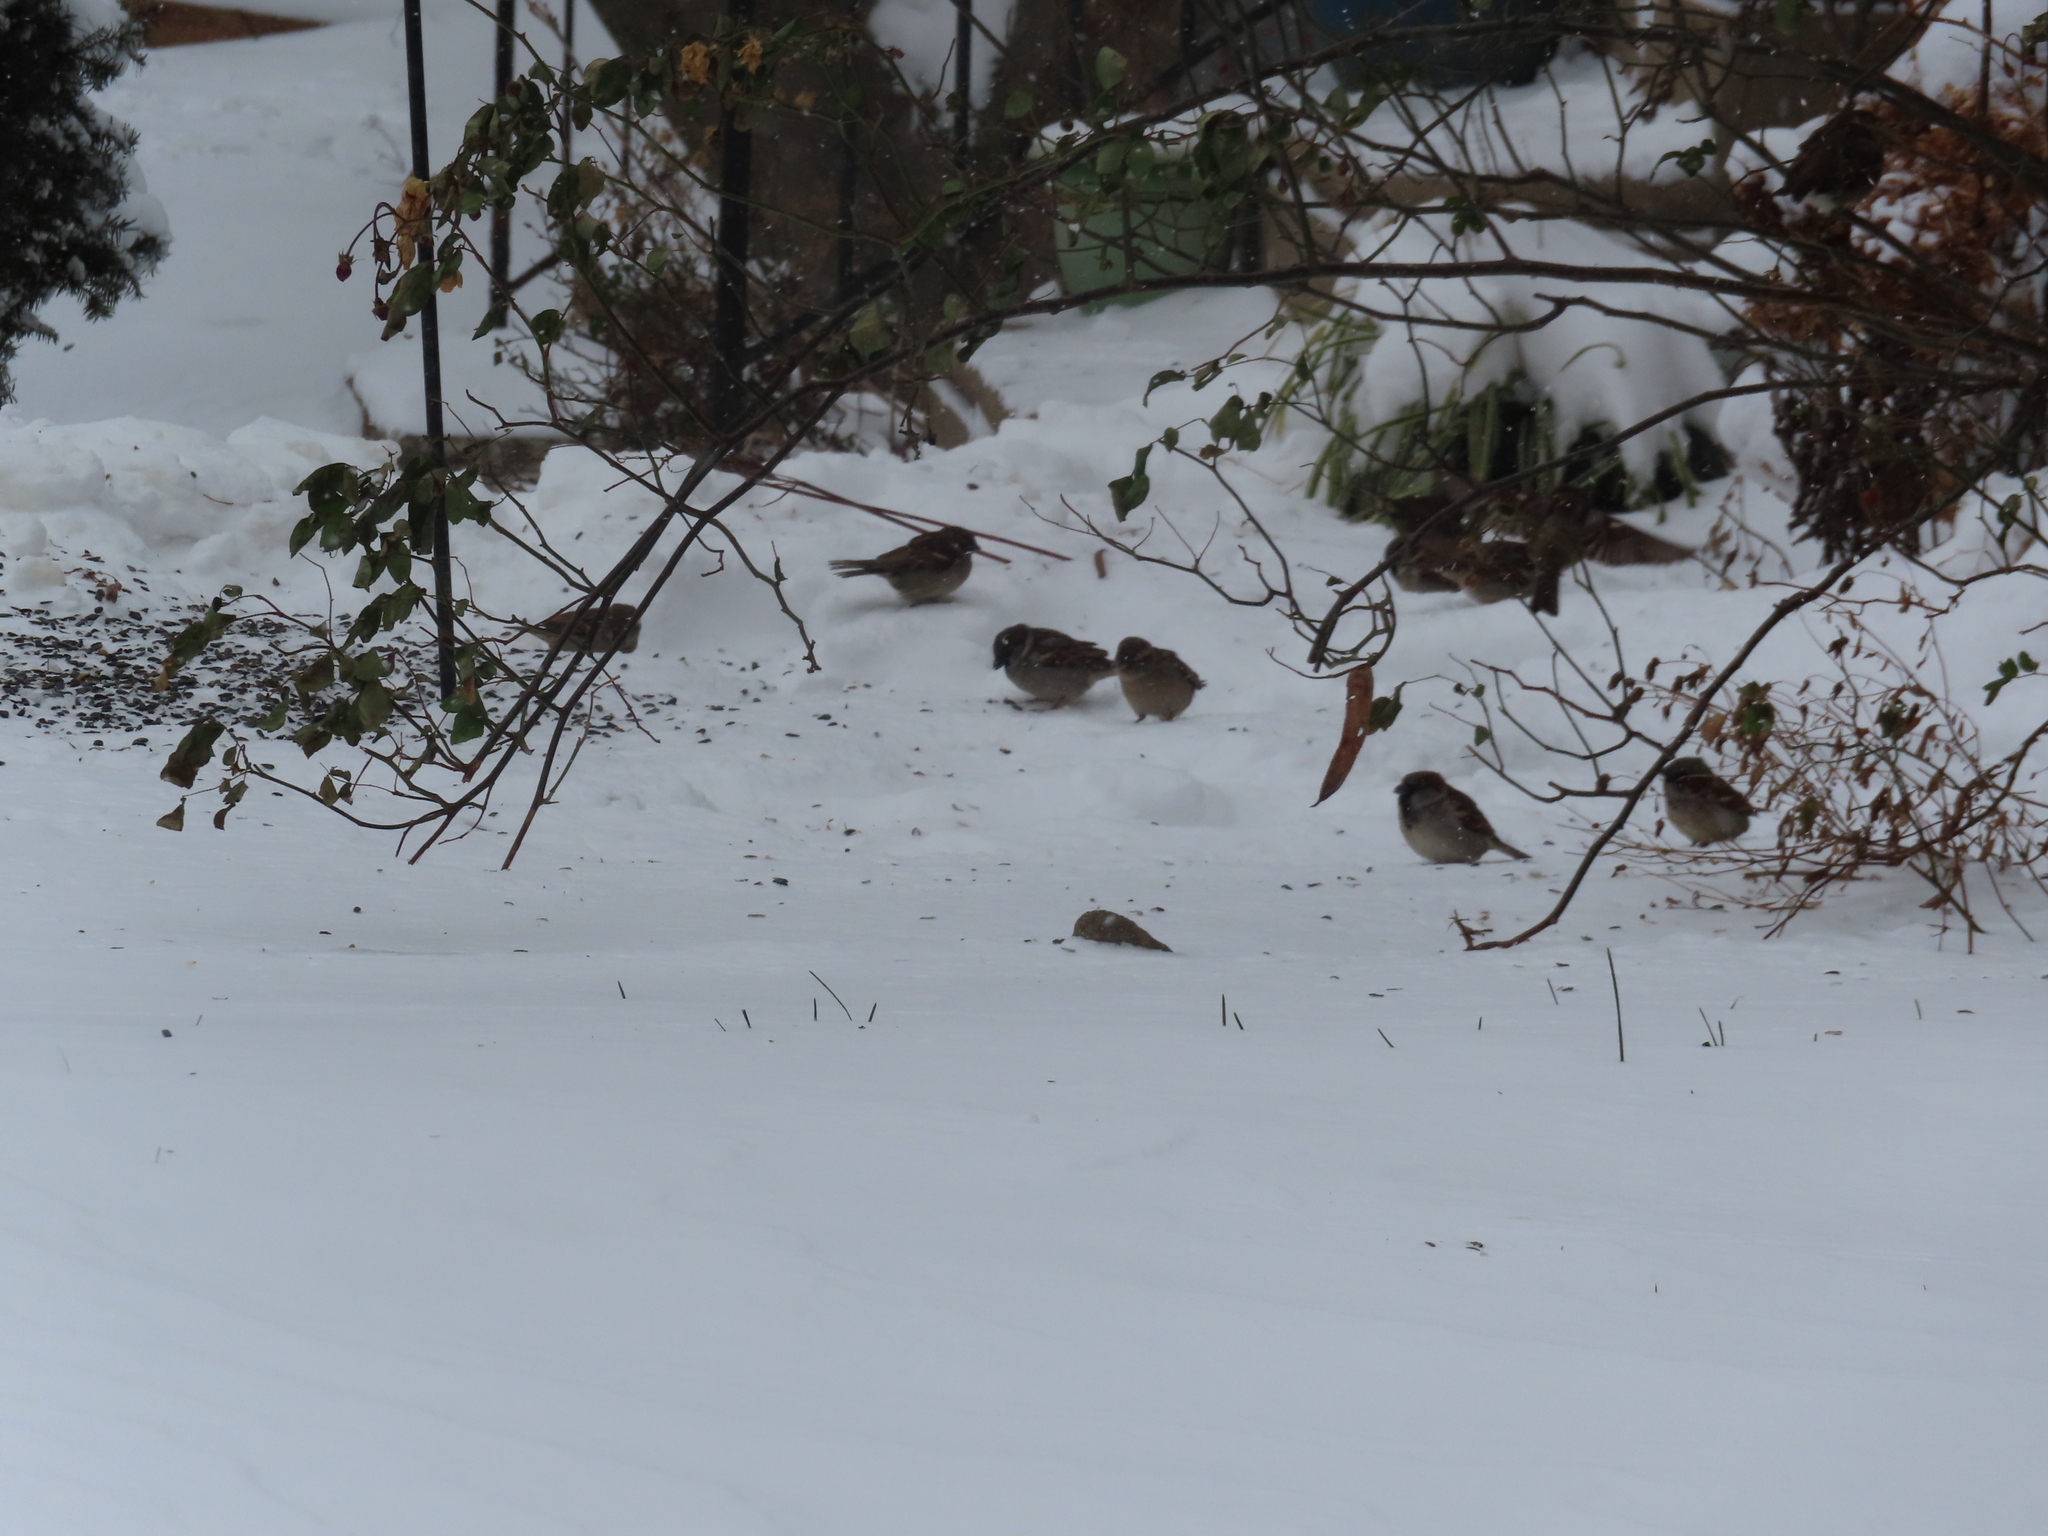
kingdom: Animalia
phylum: Chordata
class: Aves
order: Passeriformes
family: Passeridae
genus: Passer
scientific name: Passer domesticus
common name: House sparrow
